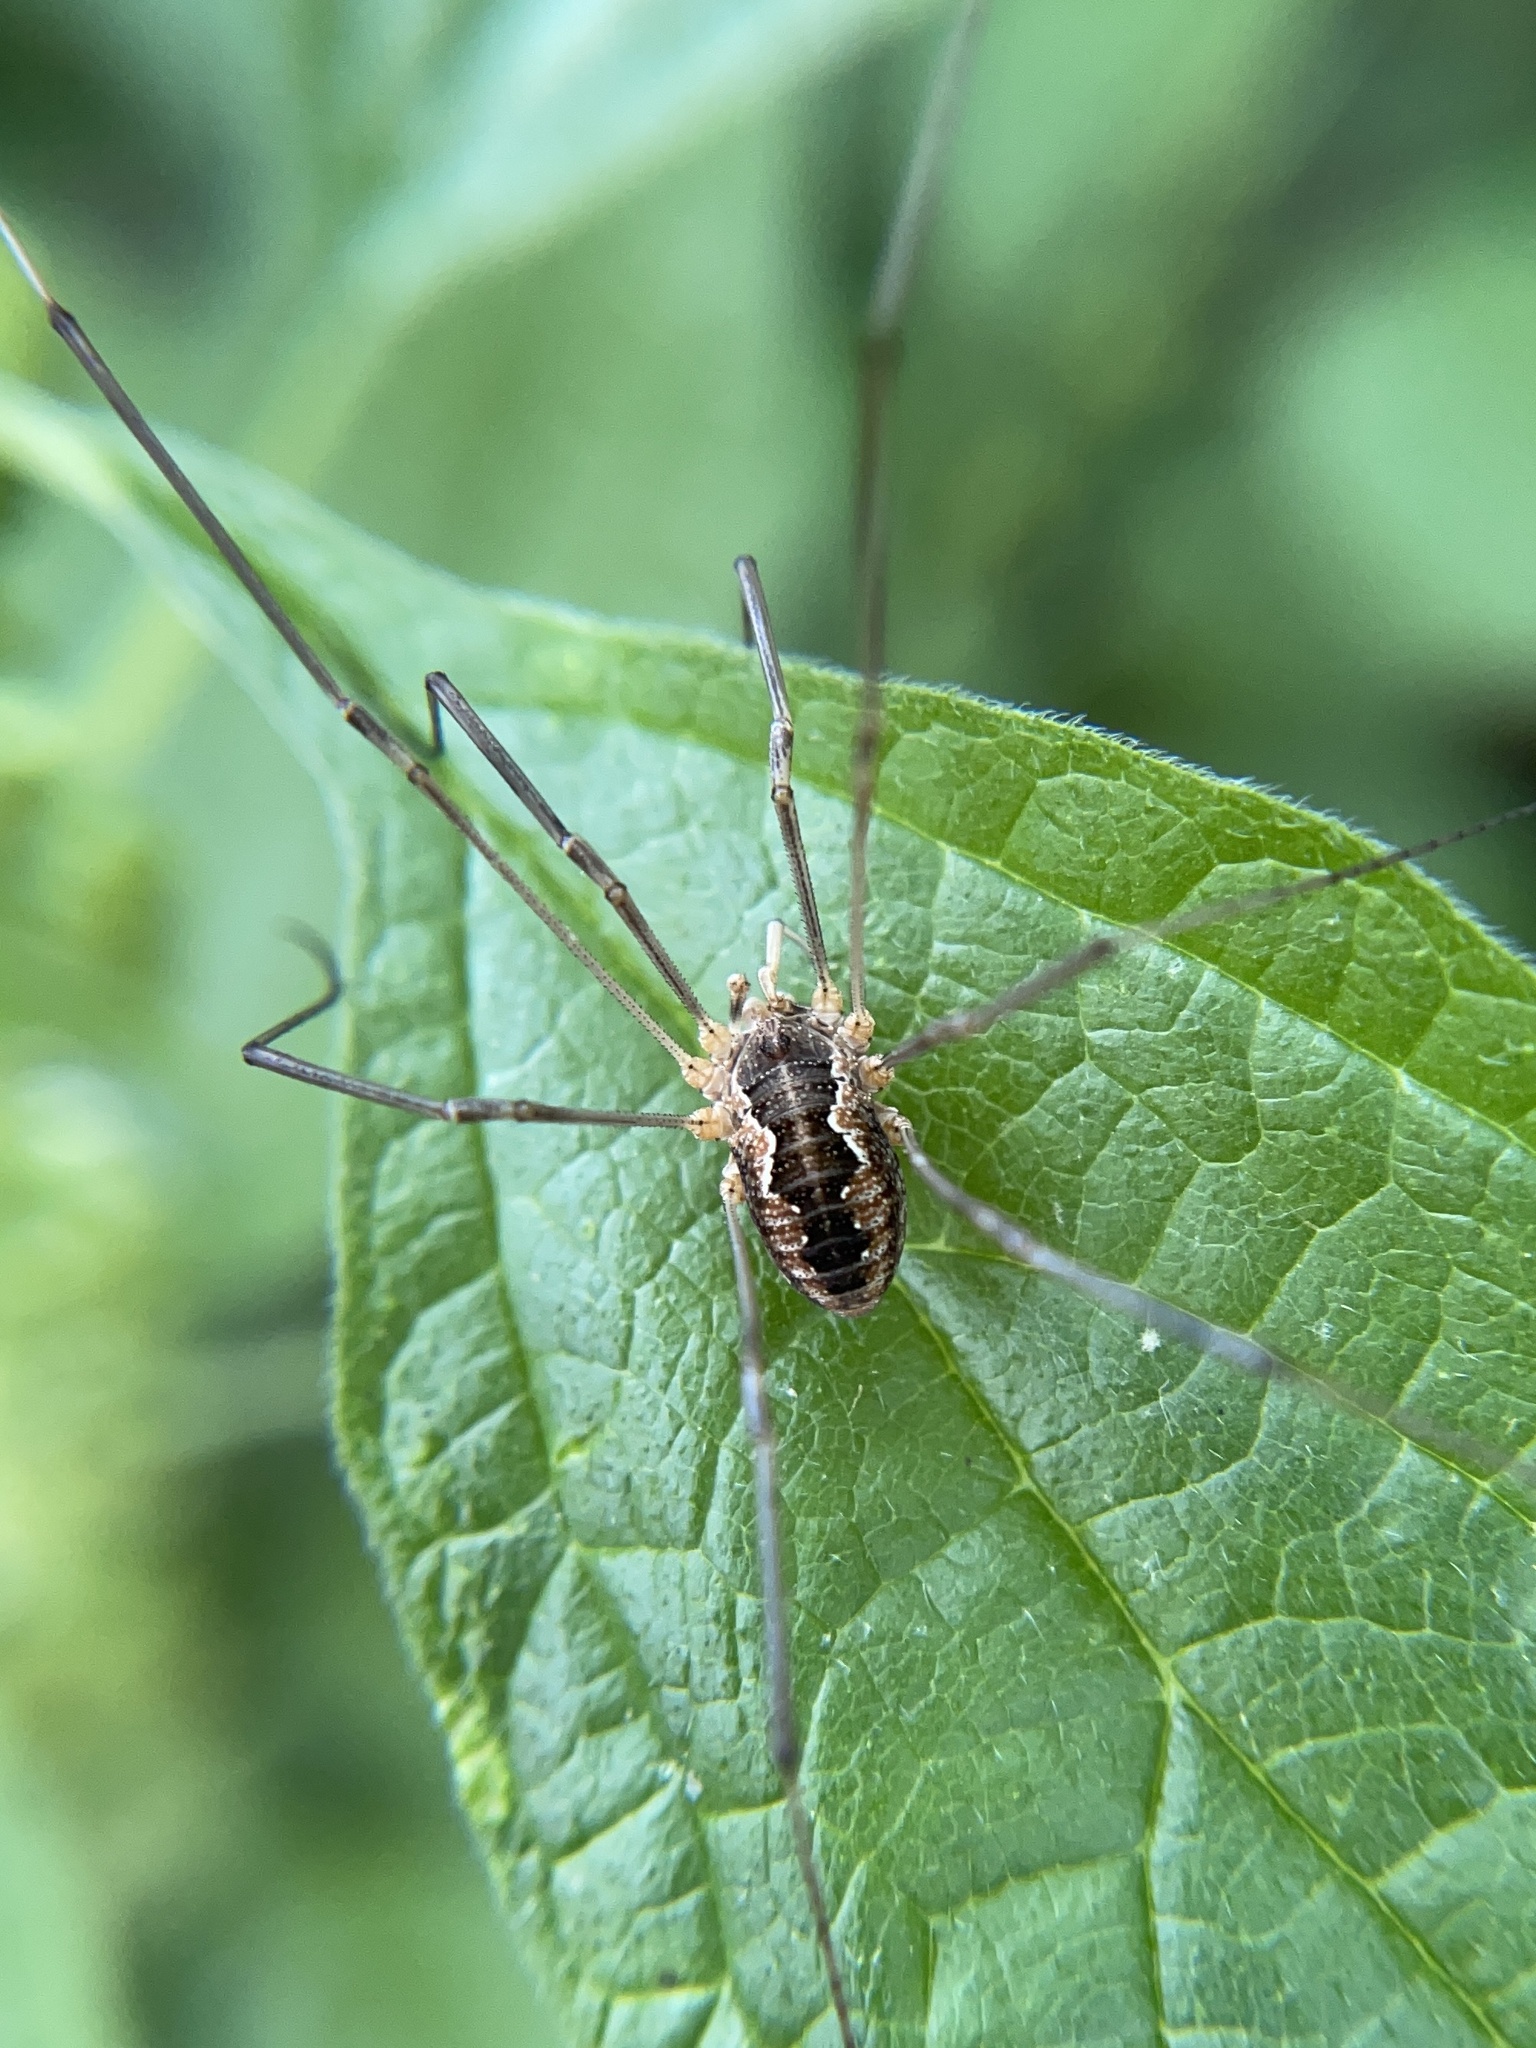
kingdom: Animalia
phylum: Arthropoda
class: Arachnida
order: Opiliones
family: Phalangiidae
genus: Phalangium
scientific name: Phalangium opilio
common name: Daddy longleg
